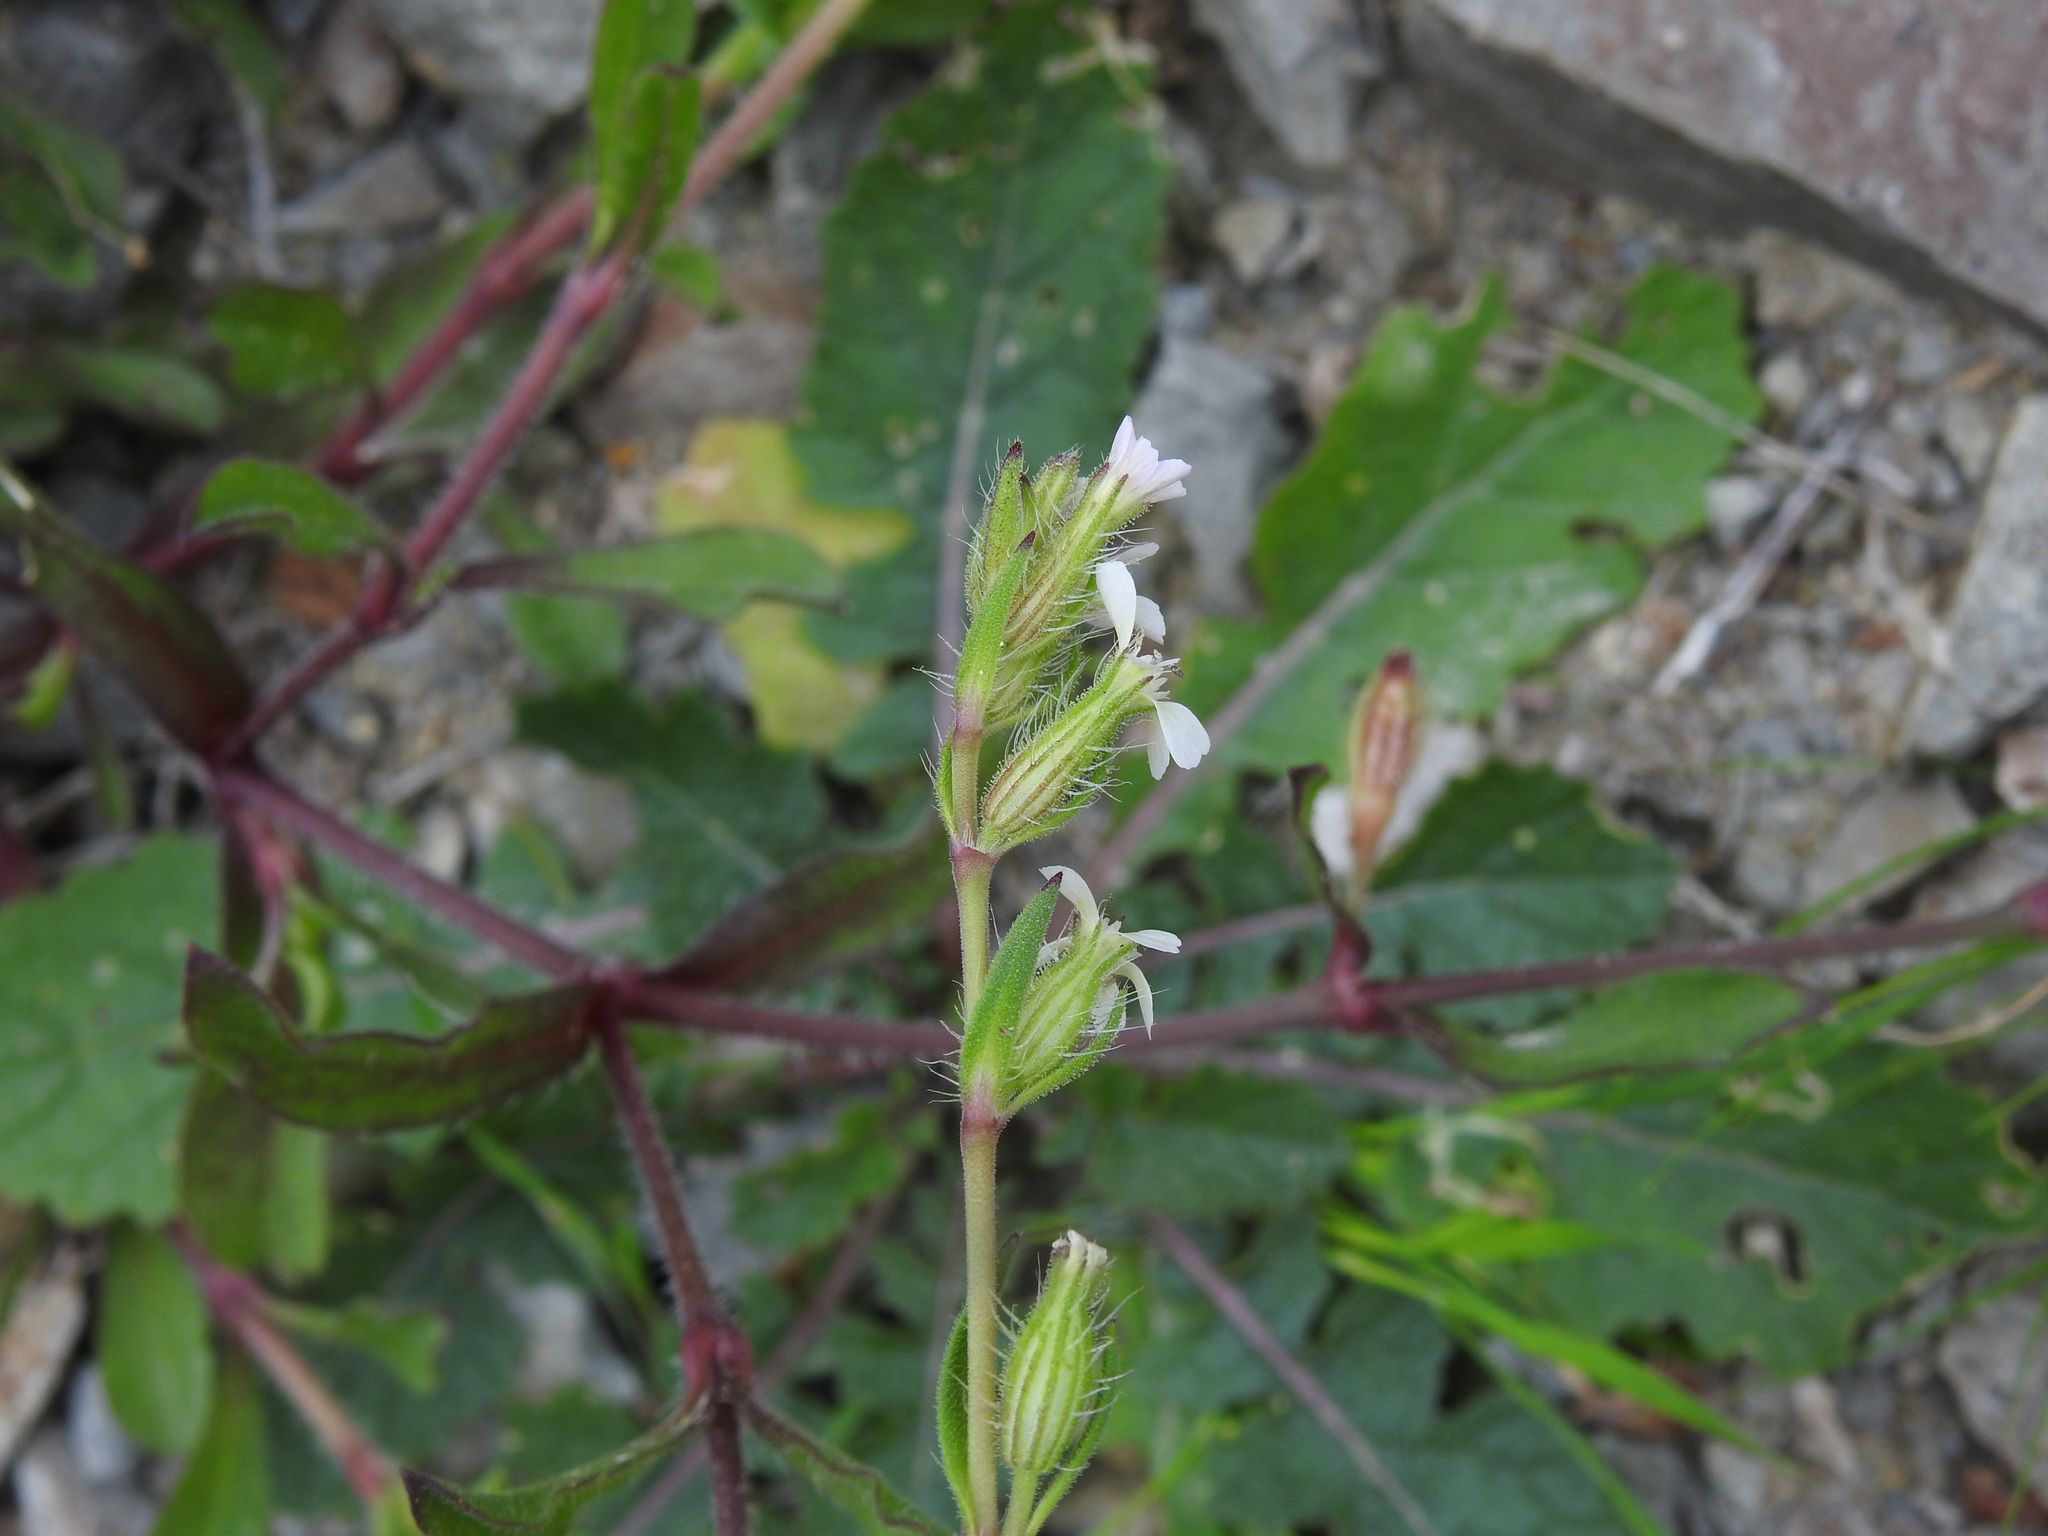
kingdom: Plantae
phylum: Tracheophyta
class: Magnoliopsida
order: Caryophyllales
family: Caryophyllaceae
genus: Silene
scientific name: Silene gallica
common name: Small-flowered catchfly
